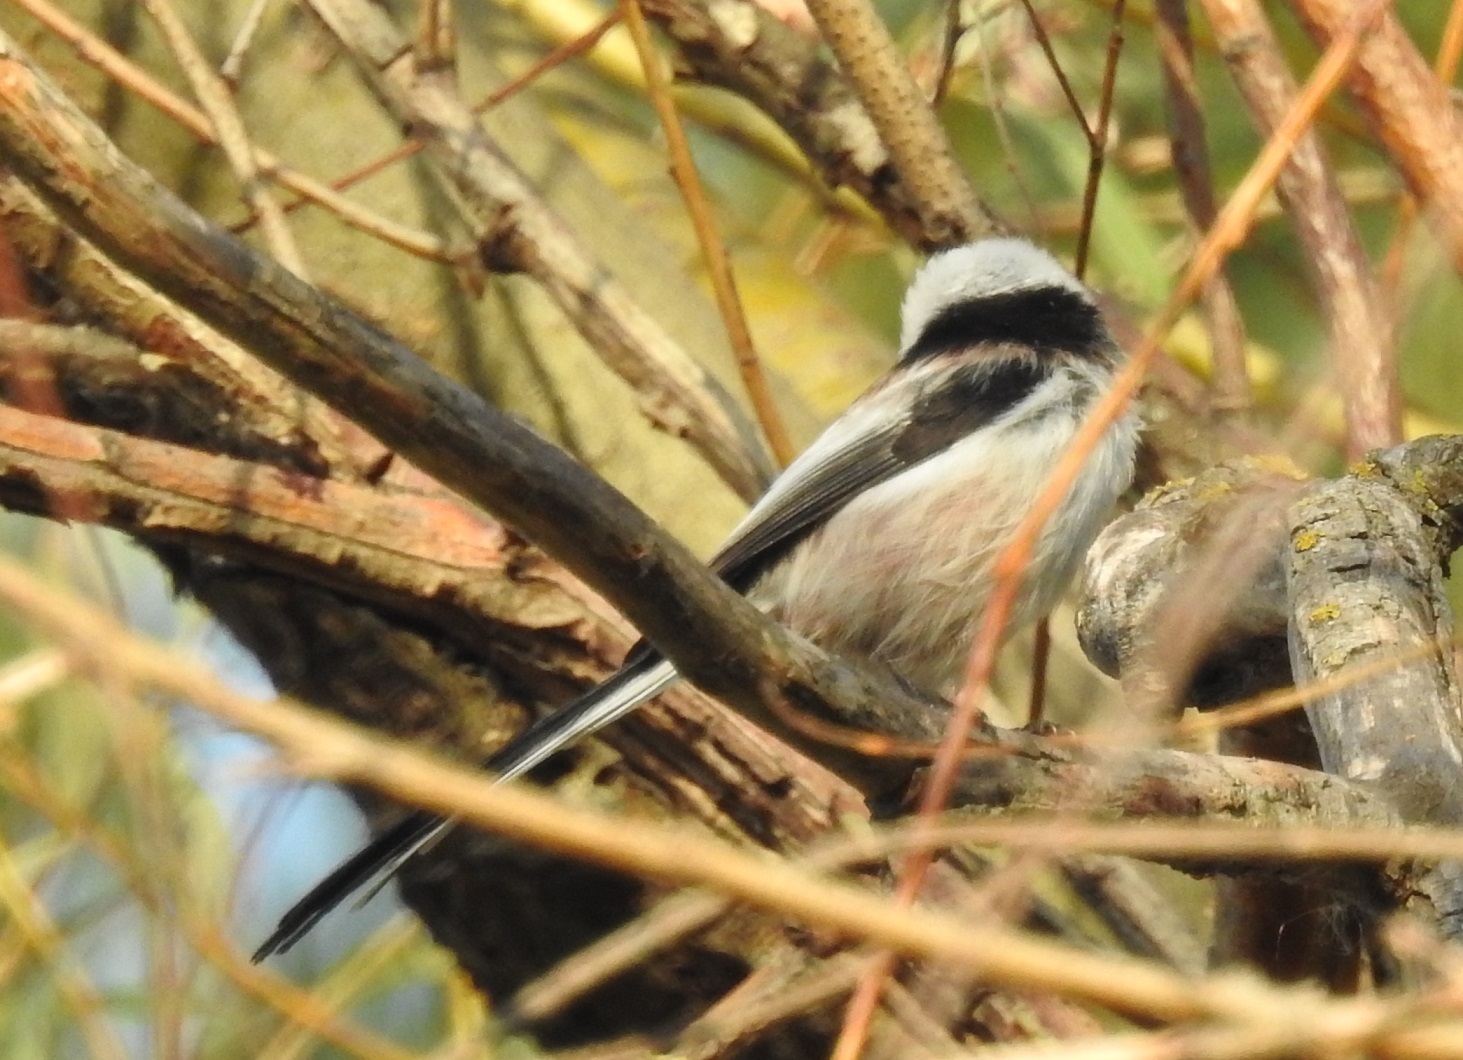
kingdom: Animalia
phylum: Chordata
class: Aves
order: Passeriformes
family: Aegithalidae
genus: Aegithalos
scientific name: Aegithalos caudatus
